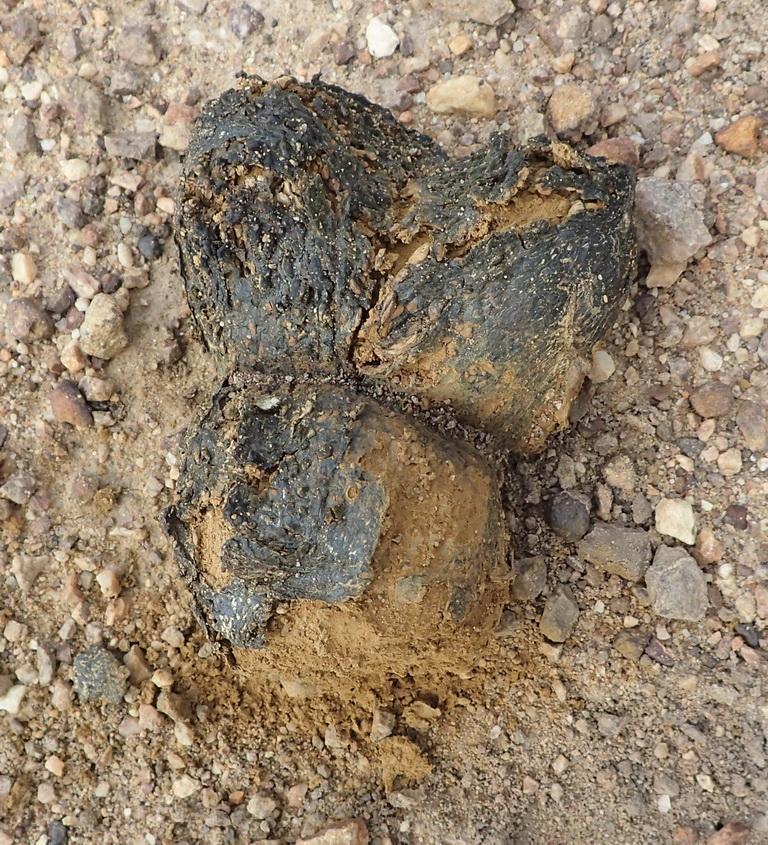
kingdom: Fungi
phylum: Basidiomycota
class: Agaricomycetes
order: Boletales
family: Sclerodermataceae
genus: Pisolithus
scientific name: Pisolithus tinctorius
